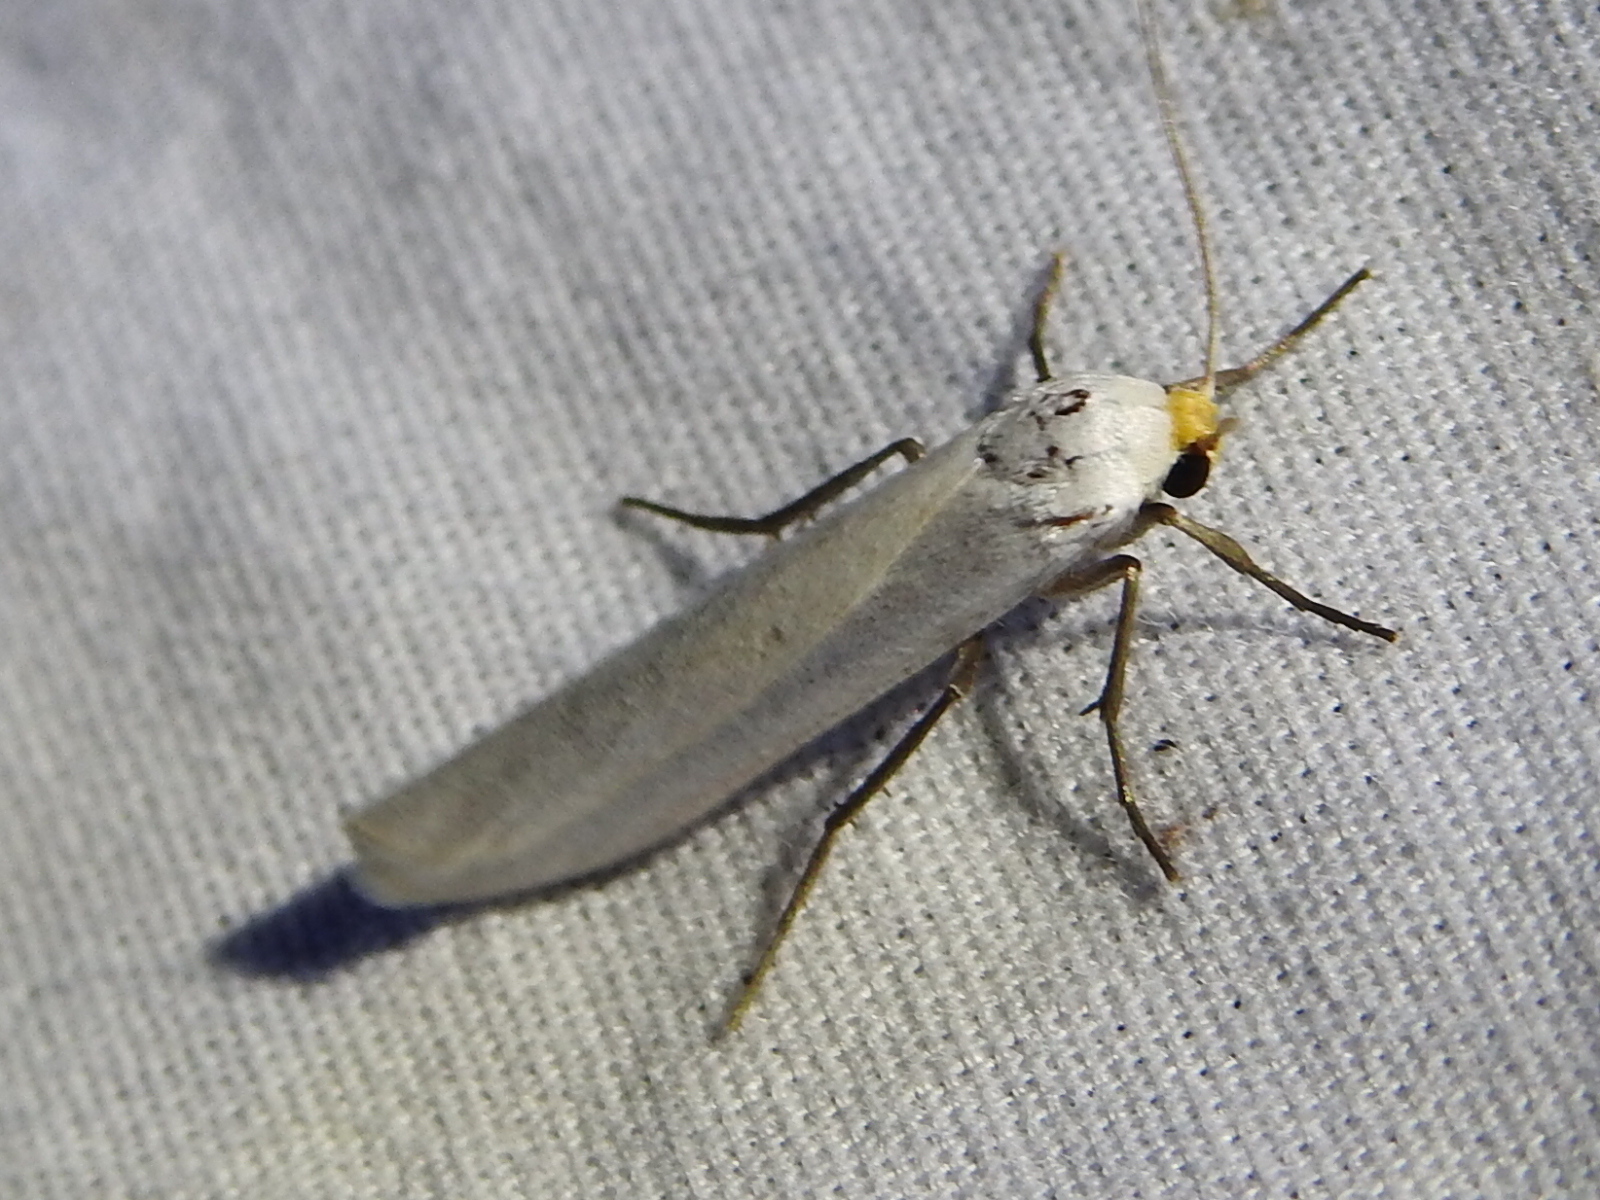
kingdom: Animalia
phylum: Arthropoda
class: Insecta
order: Lepidoptera
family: Erebidae
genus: Crambidia
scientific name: Crambidia cephalica
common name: Yellow-headed lichen moth
